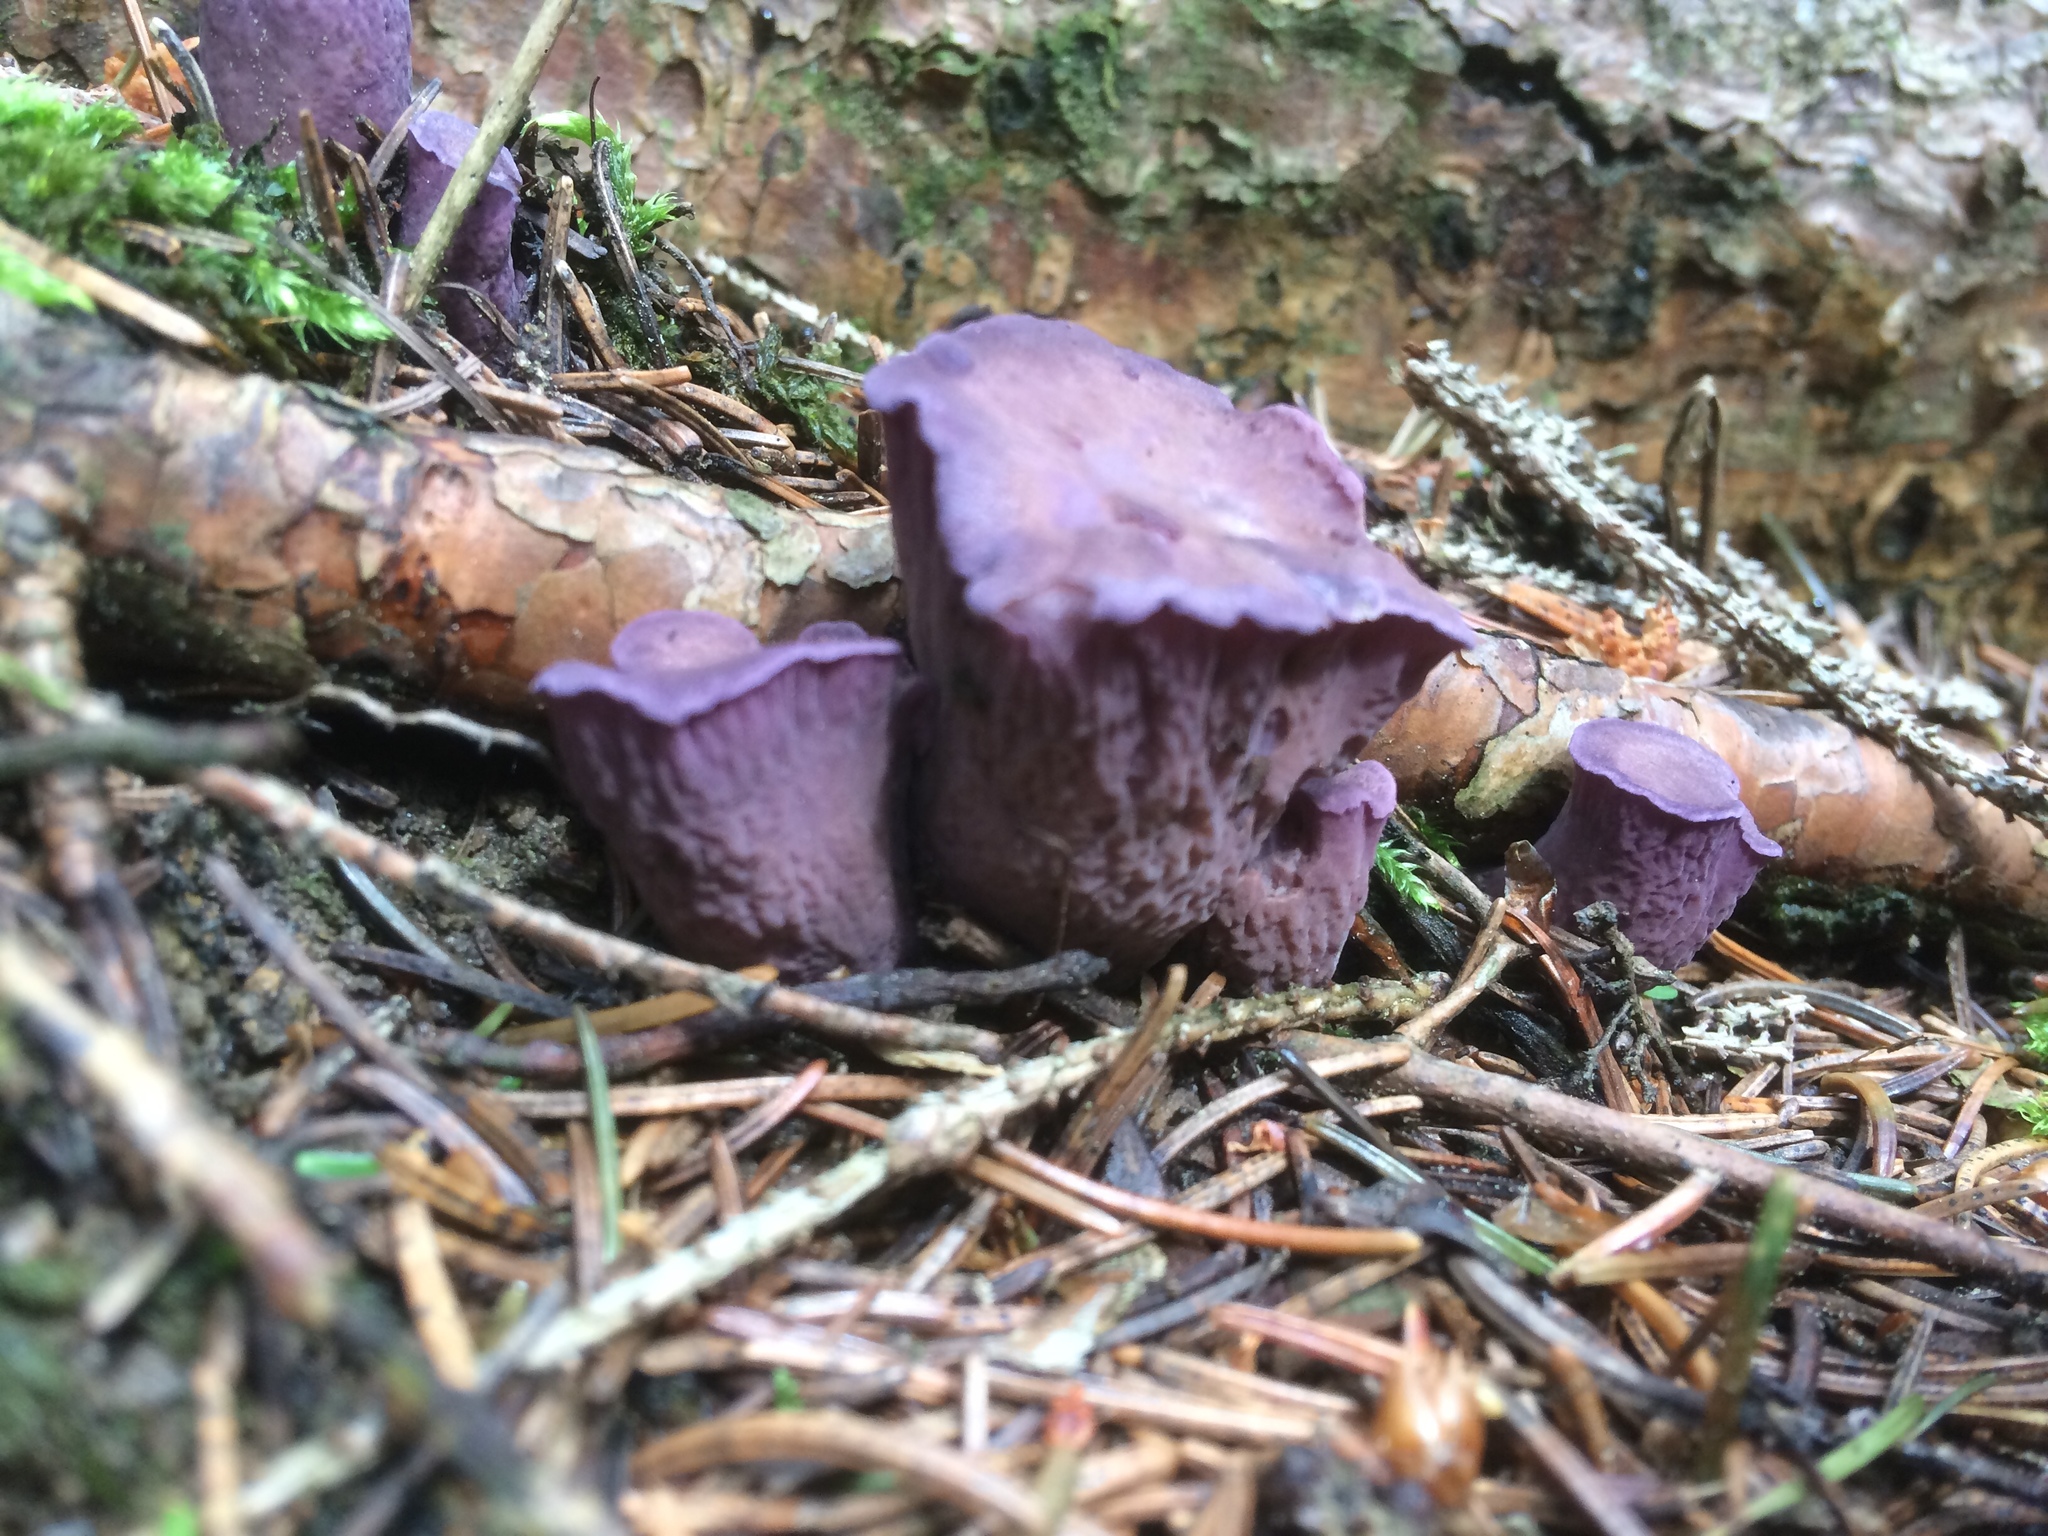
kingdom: Fungi
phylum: Basidiomycota
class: Agaricomycetes
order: Gomphales
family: Gomphaceae
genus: Gomphus
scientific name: Gomphus clavatus
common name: Pig's ear
